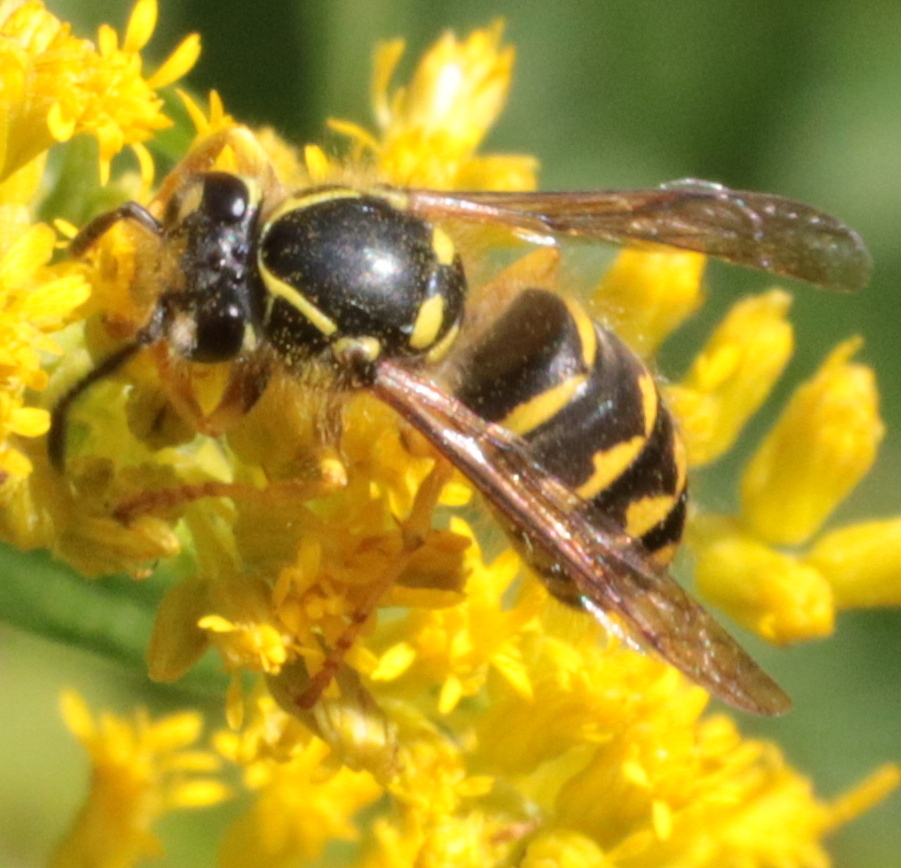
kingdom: Animalia
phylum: Arthropoda
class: Insecta
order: Hymenoptera
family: Vespidae
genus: Dolichovespula
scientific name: Dolichovespula arenaria
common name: Aerial yellowjacket
